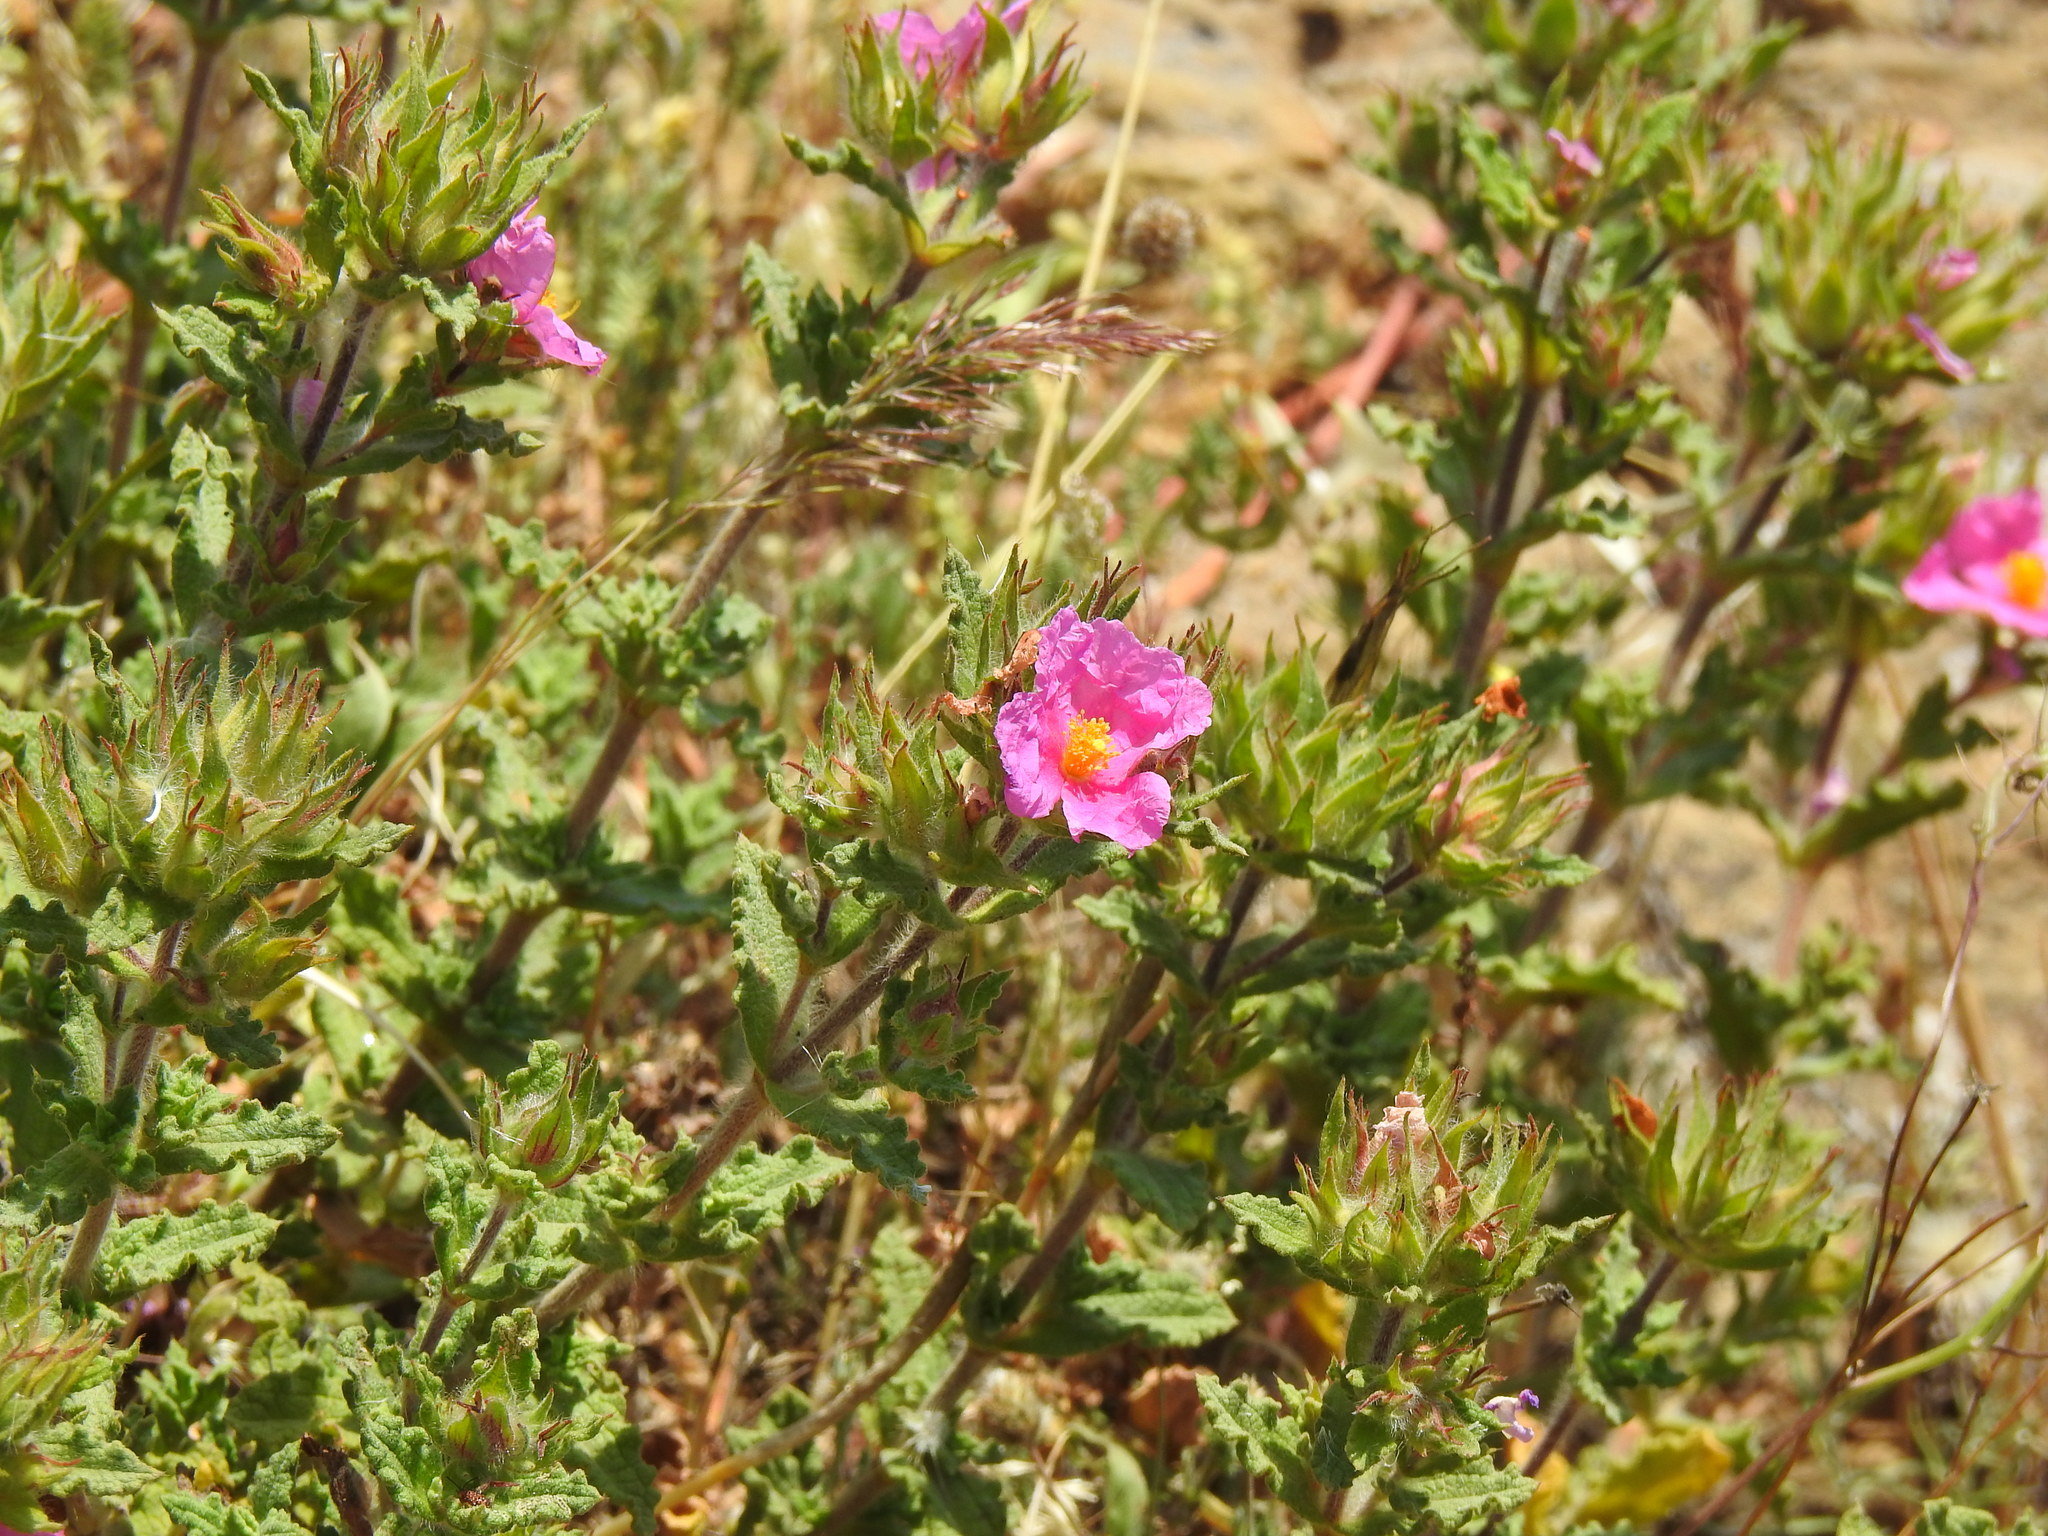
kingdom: Plantae
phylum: Tracheophyta
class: Magnoliopsida
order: Malvales
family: Cistaceae
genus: Cistus
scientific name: Cistus crispus
